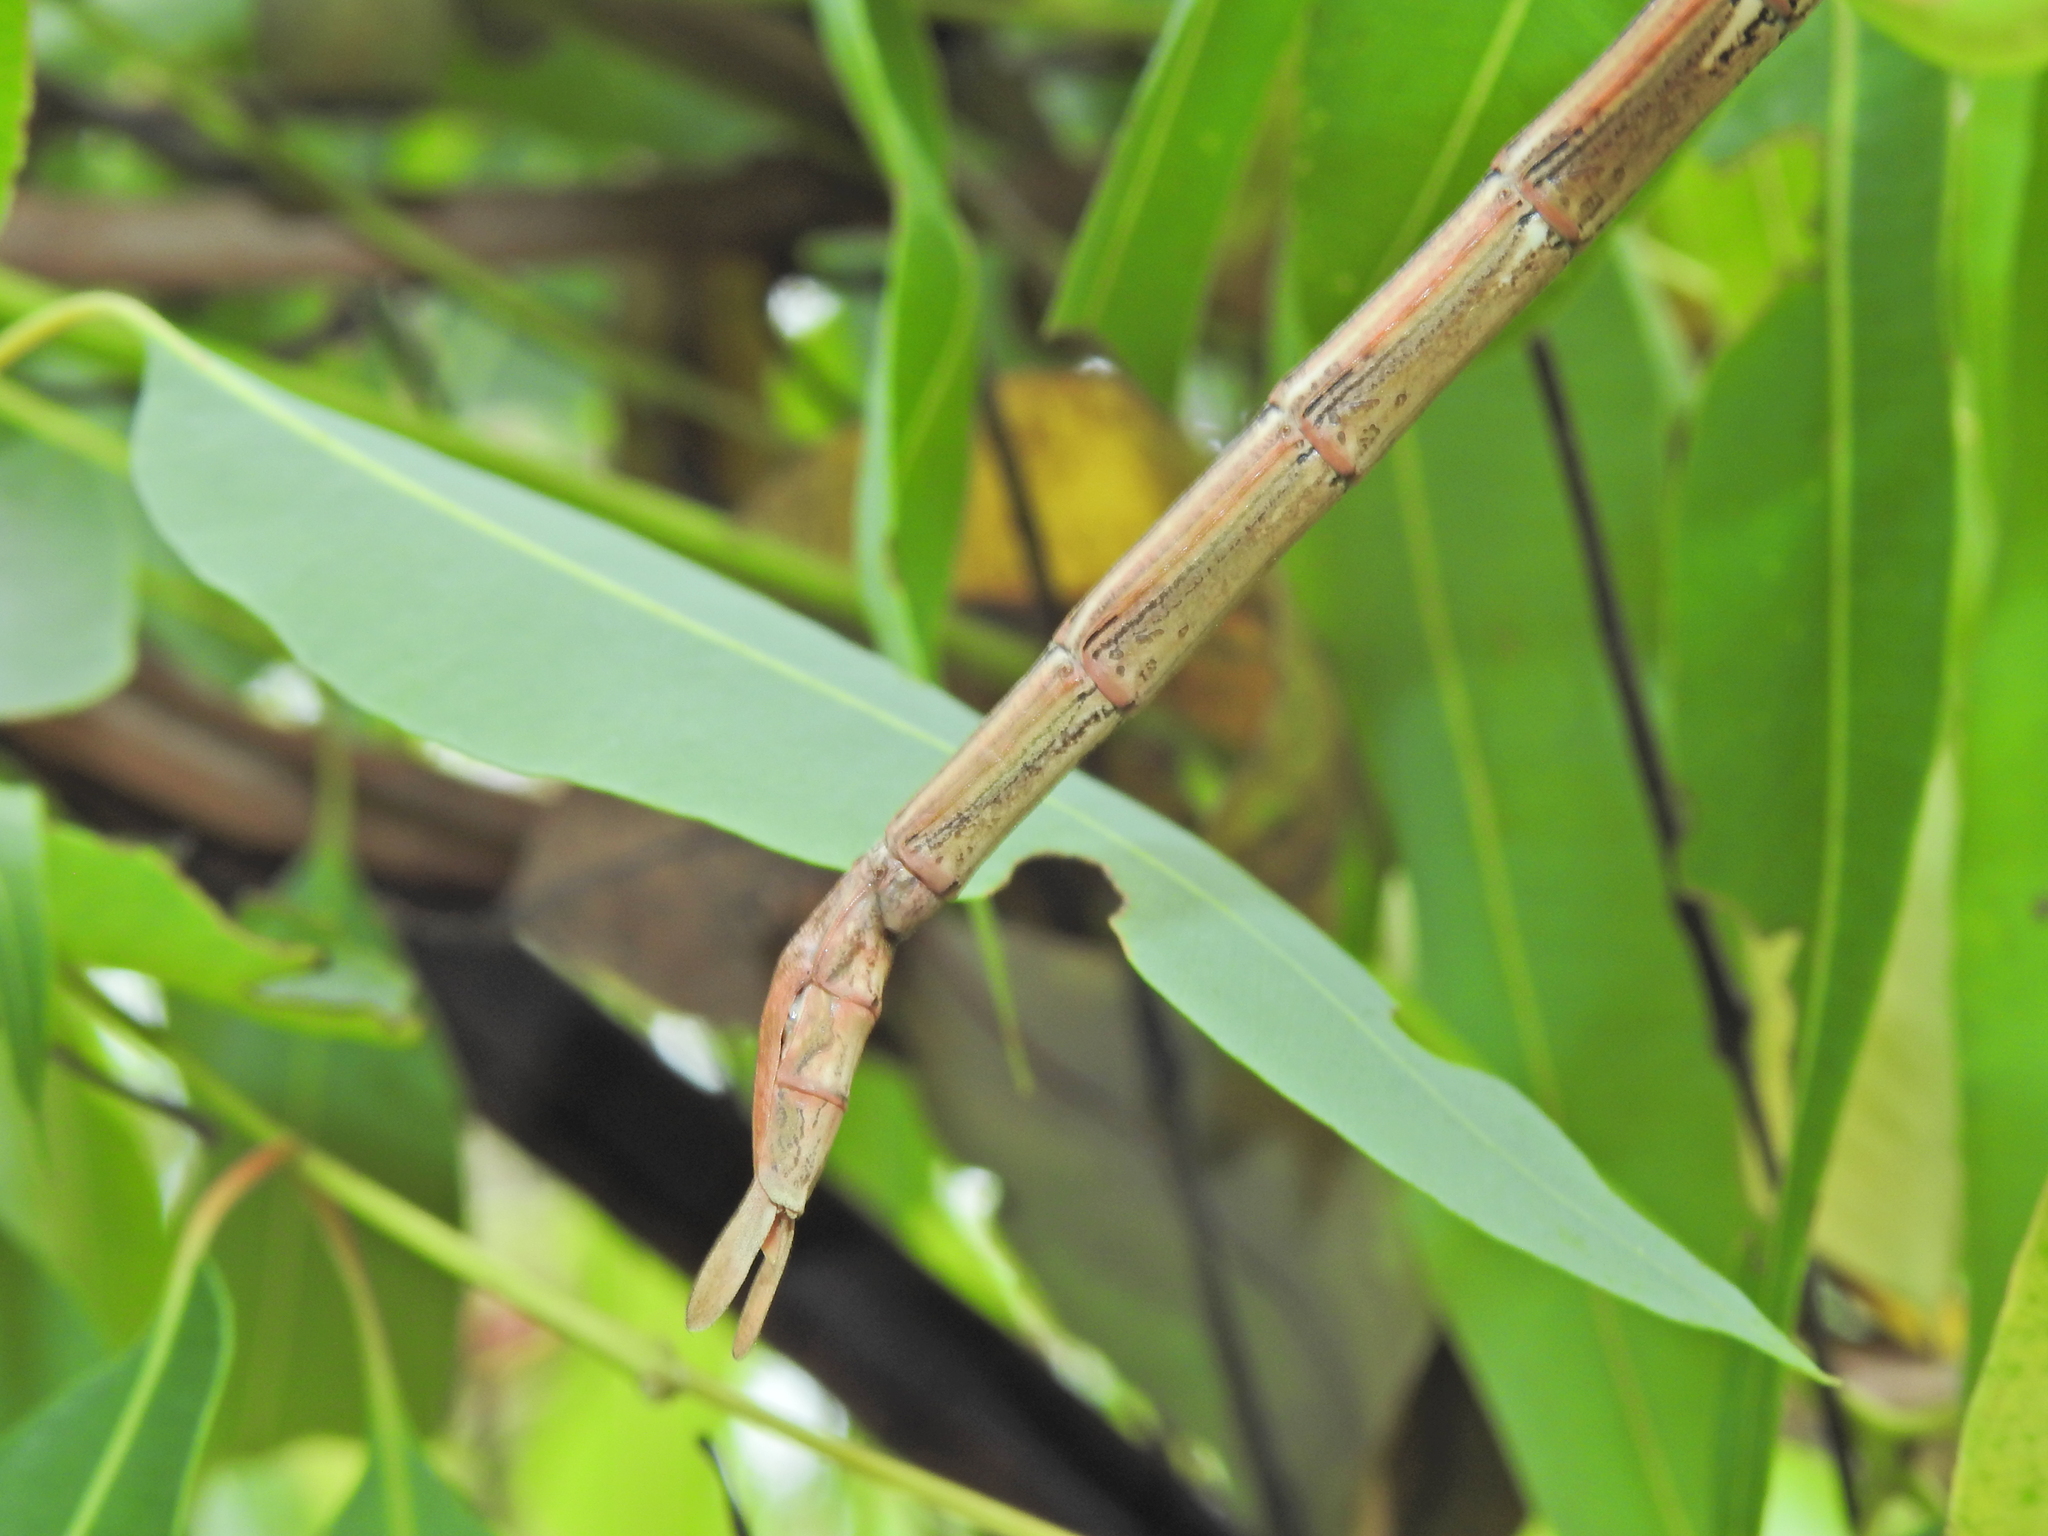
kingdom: Animalia
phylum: Arthropoda
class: Insecta
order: Phasmida
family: Phasmatidae
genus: Anchiale
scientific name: Anchiale austrotessulata
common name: Tessellated stick-insect
